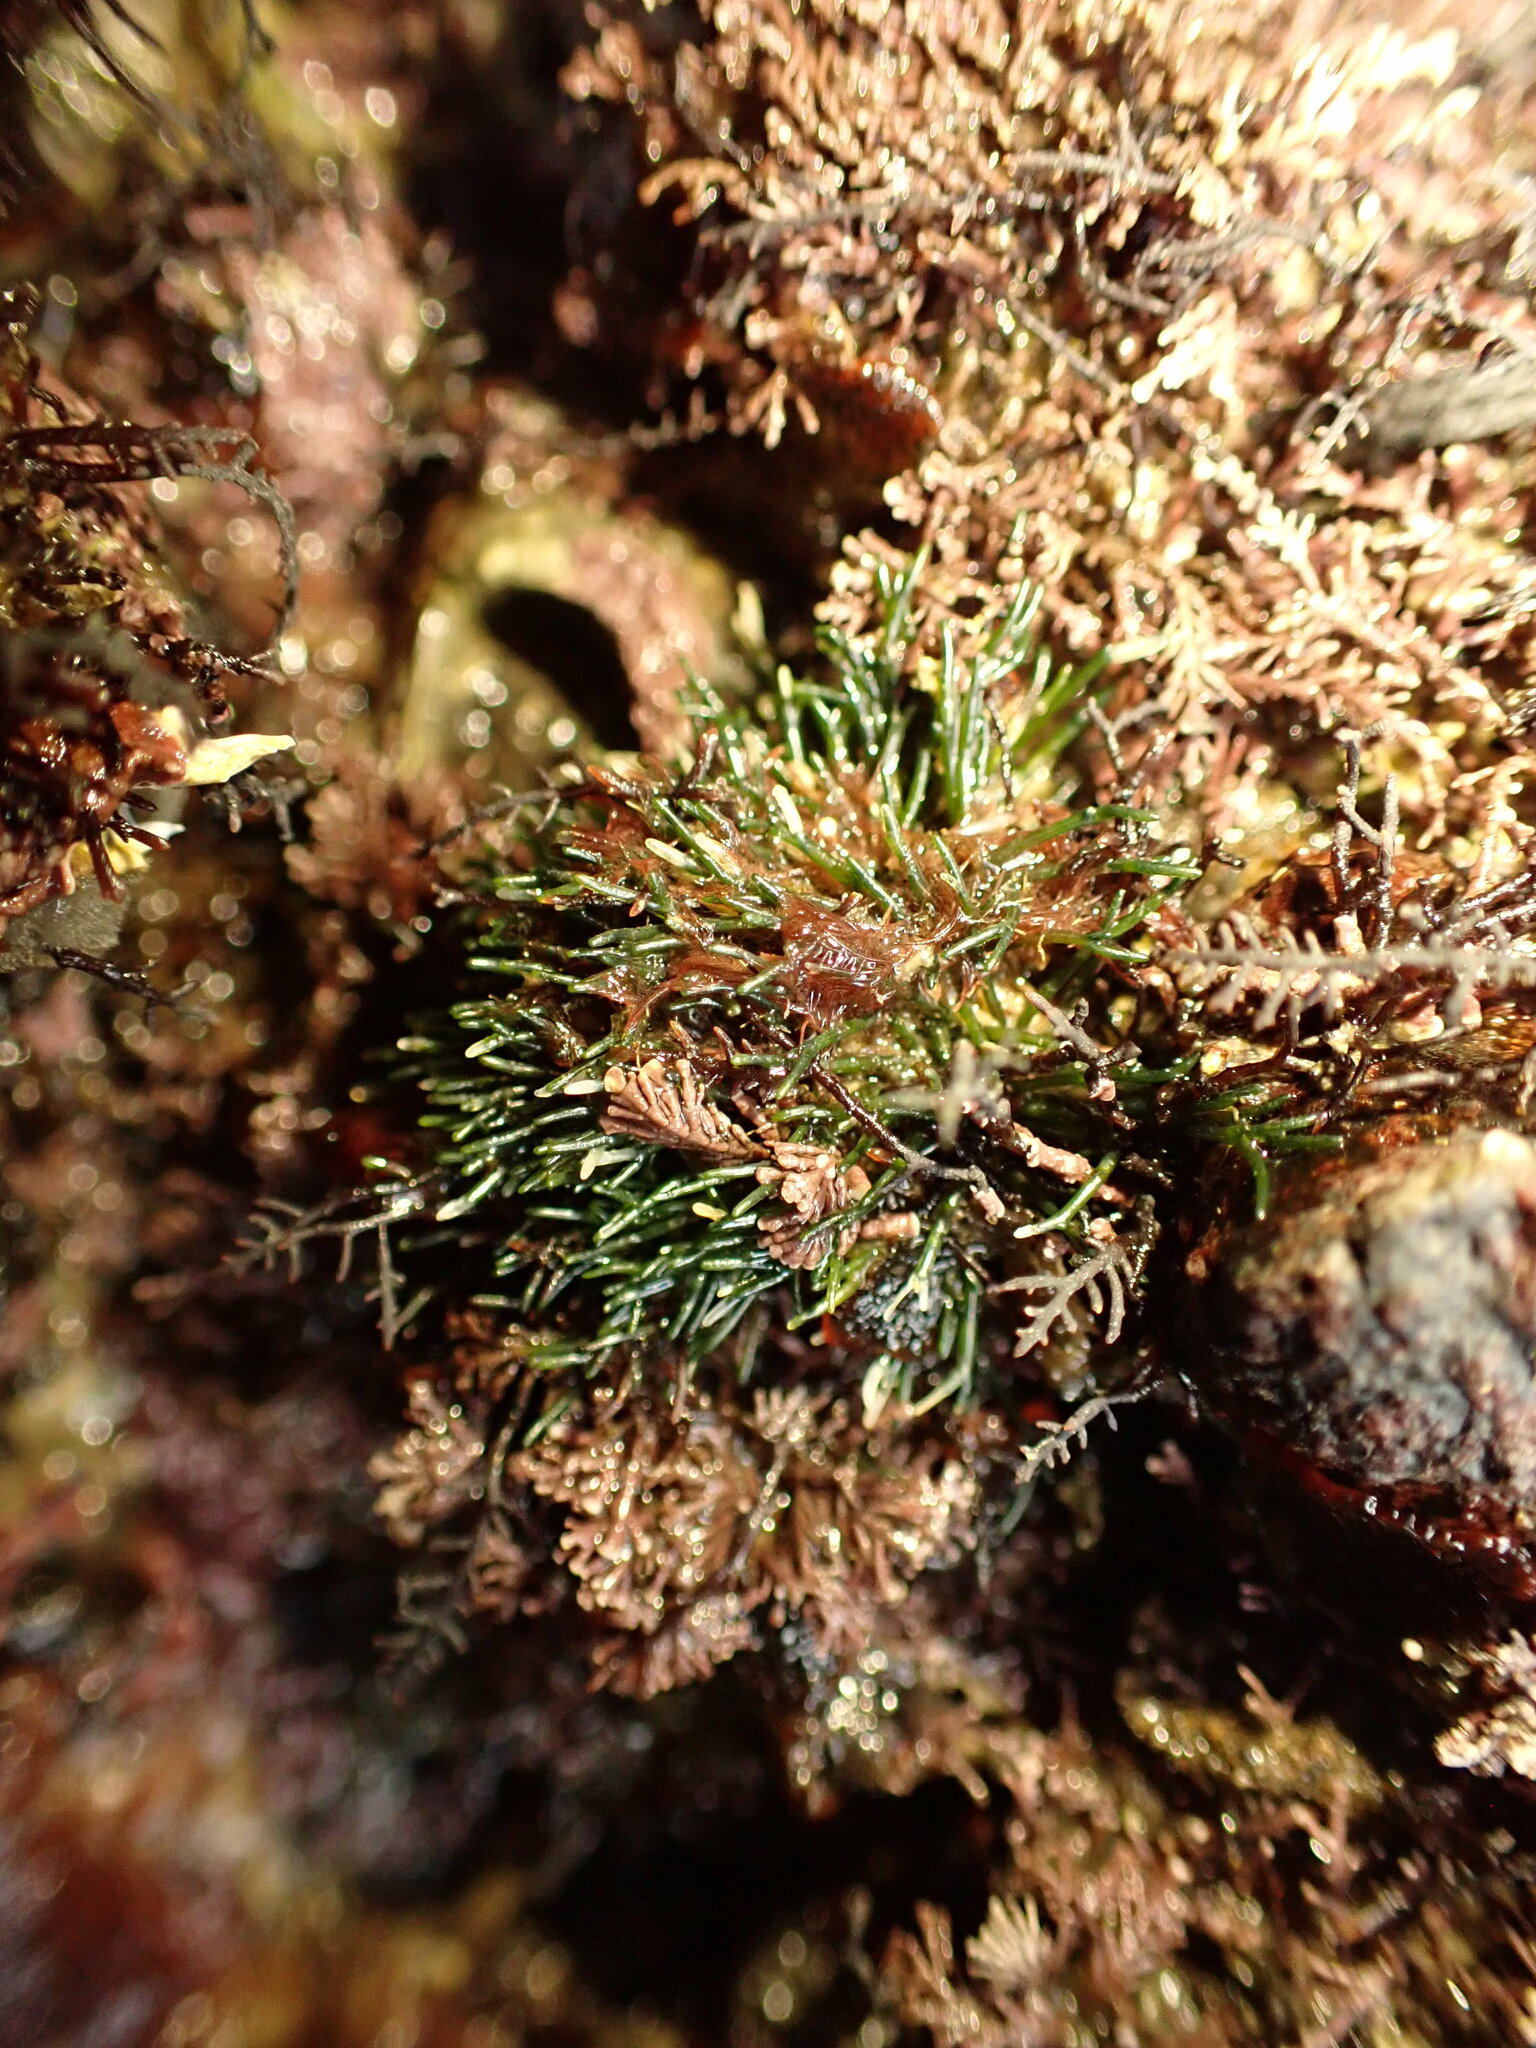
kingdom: Plantae
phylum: Chlorophyta
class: Ulvophyceae
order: Cladophorales
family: Cladophoraceae
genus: Lychaete
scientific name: Lychaete herpestica
